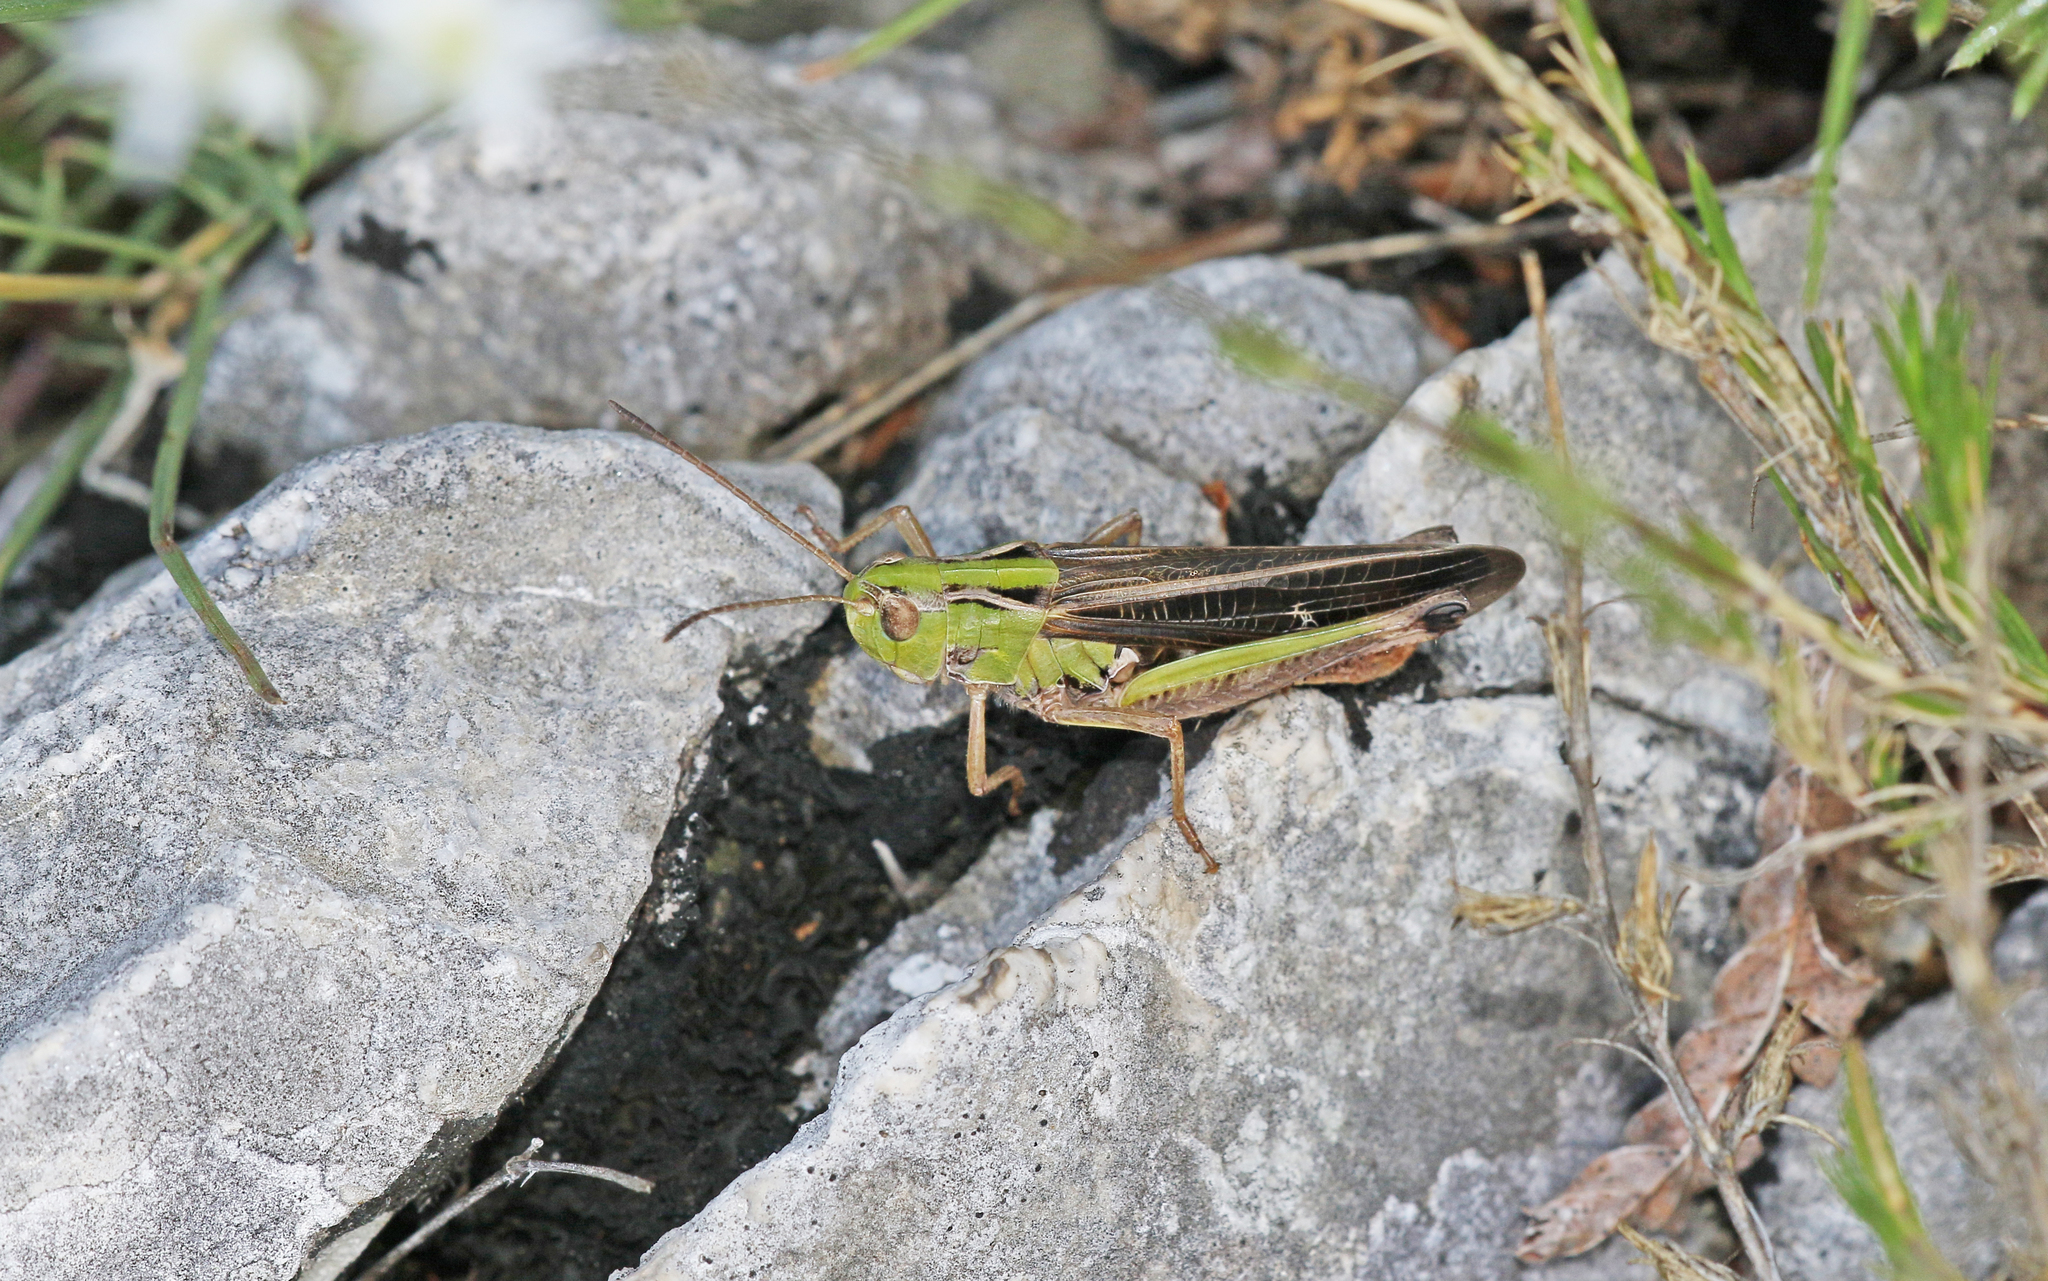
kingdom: Animalia
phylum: Arthropoda
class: Insecta
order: Orthoptera
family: Acrididae
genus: Stenobothrus
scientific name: Stenobothrus rubicundulus
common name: Wing-buzzing grasshopper
